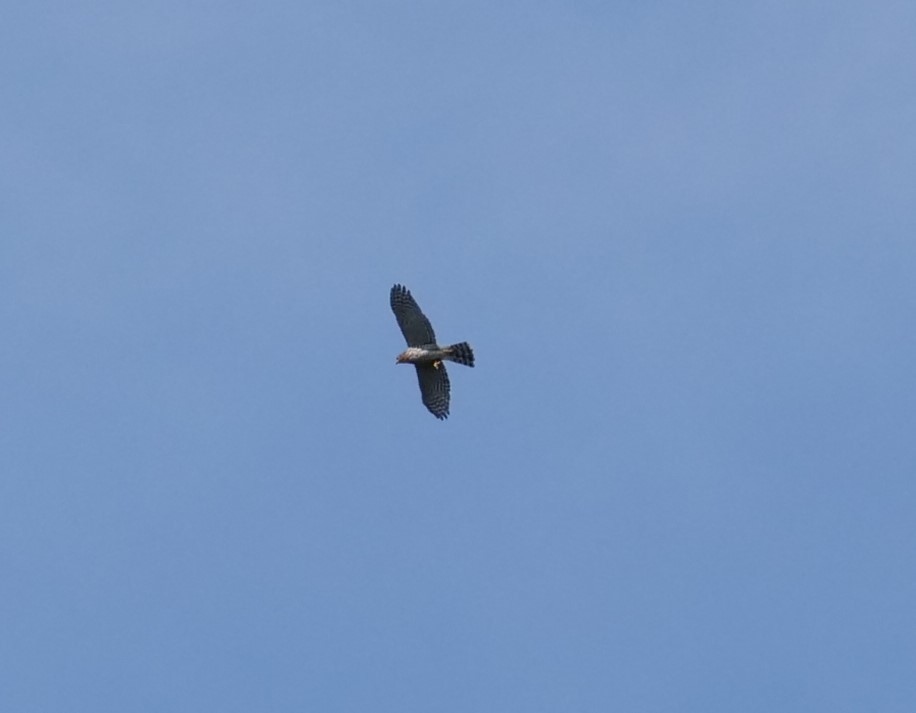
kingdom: Animalia
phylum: Chordata
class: Aves
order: Accipitriformes
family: Accipitridae
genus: Accipiter
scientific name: Accipiter cooperii
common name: Cooper's hawk
